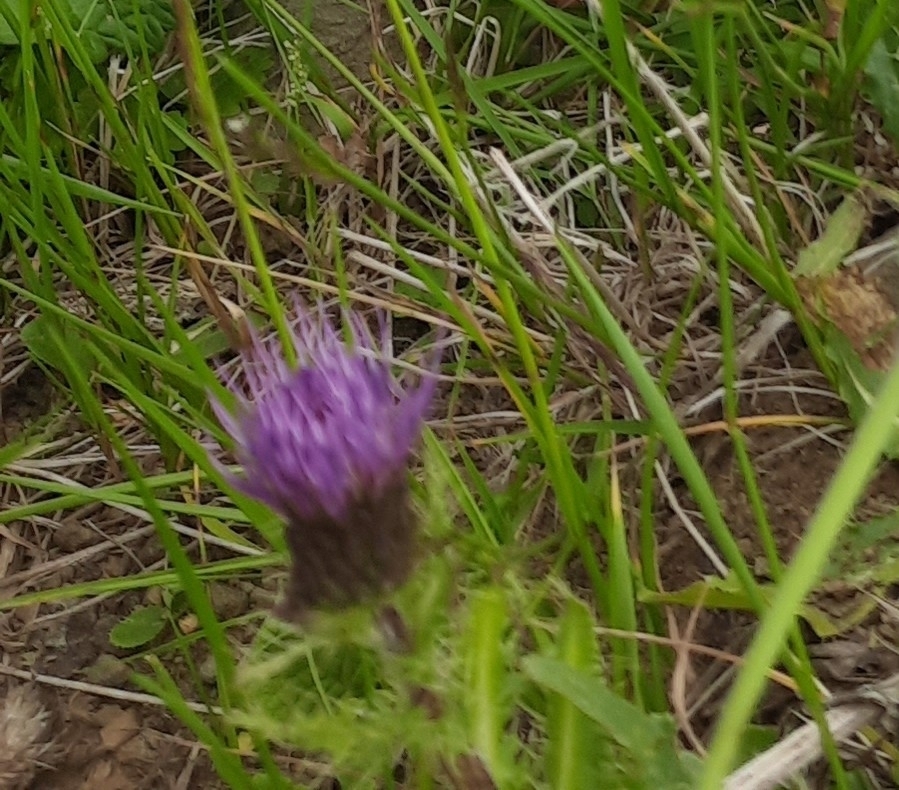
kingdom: Plantae
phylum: Tracheophyta
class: Magnoliopsida
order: Asterales
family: Asteraceae
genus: Cirsium
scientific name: Cirsium simplex
